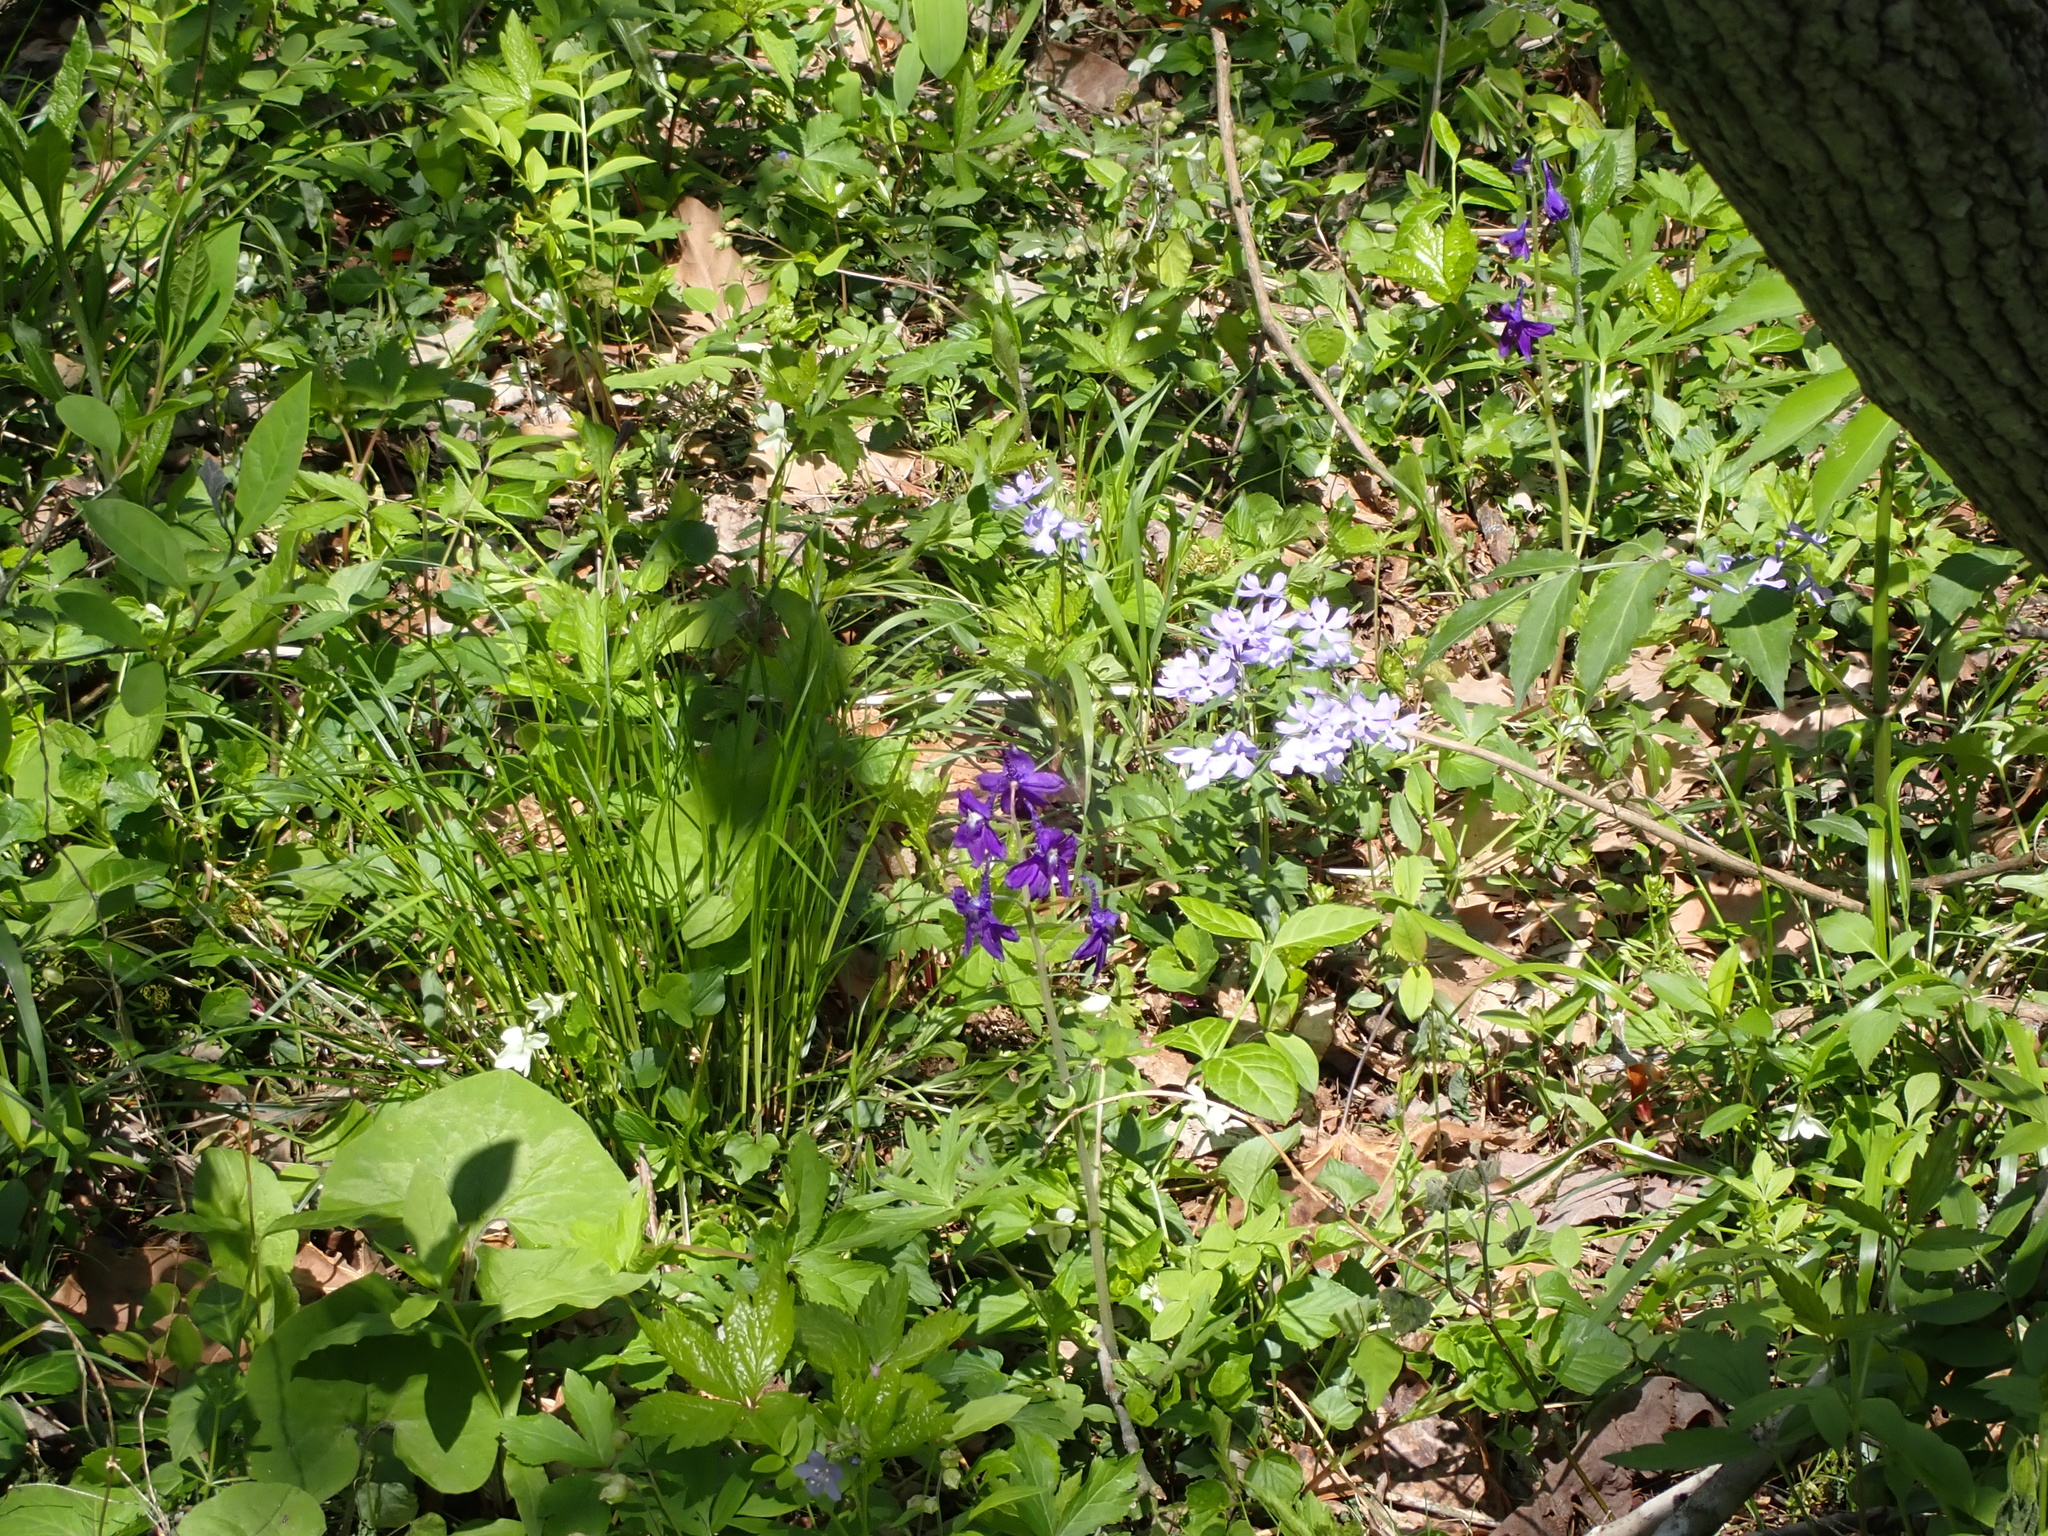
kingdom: Plantae
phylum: Tracheophyta
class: Magnoliopsida
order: Ranunculales
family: Ranunculaceae
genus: Delphinium
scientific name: Delphinium tricorne
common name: Dwarf larkspur
